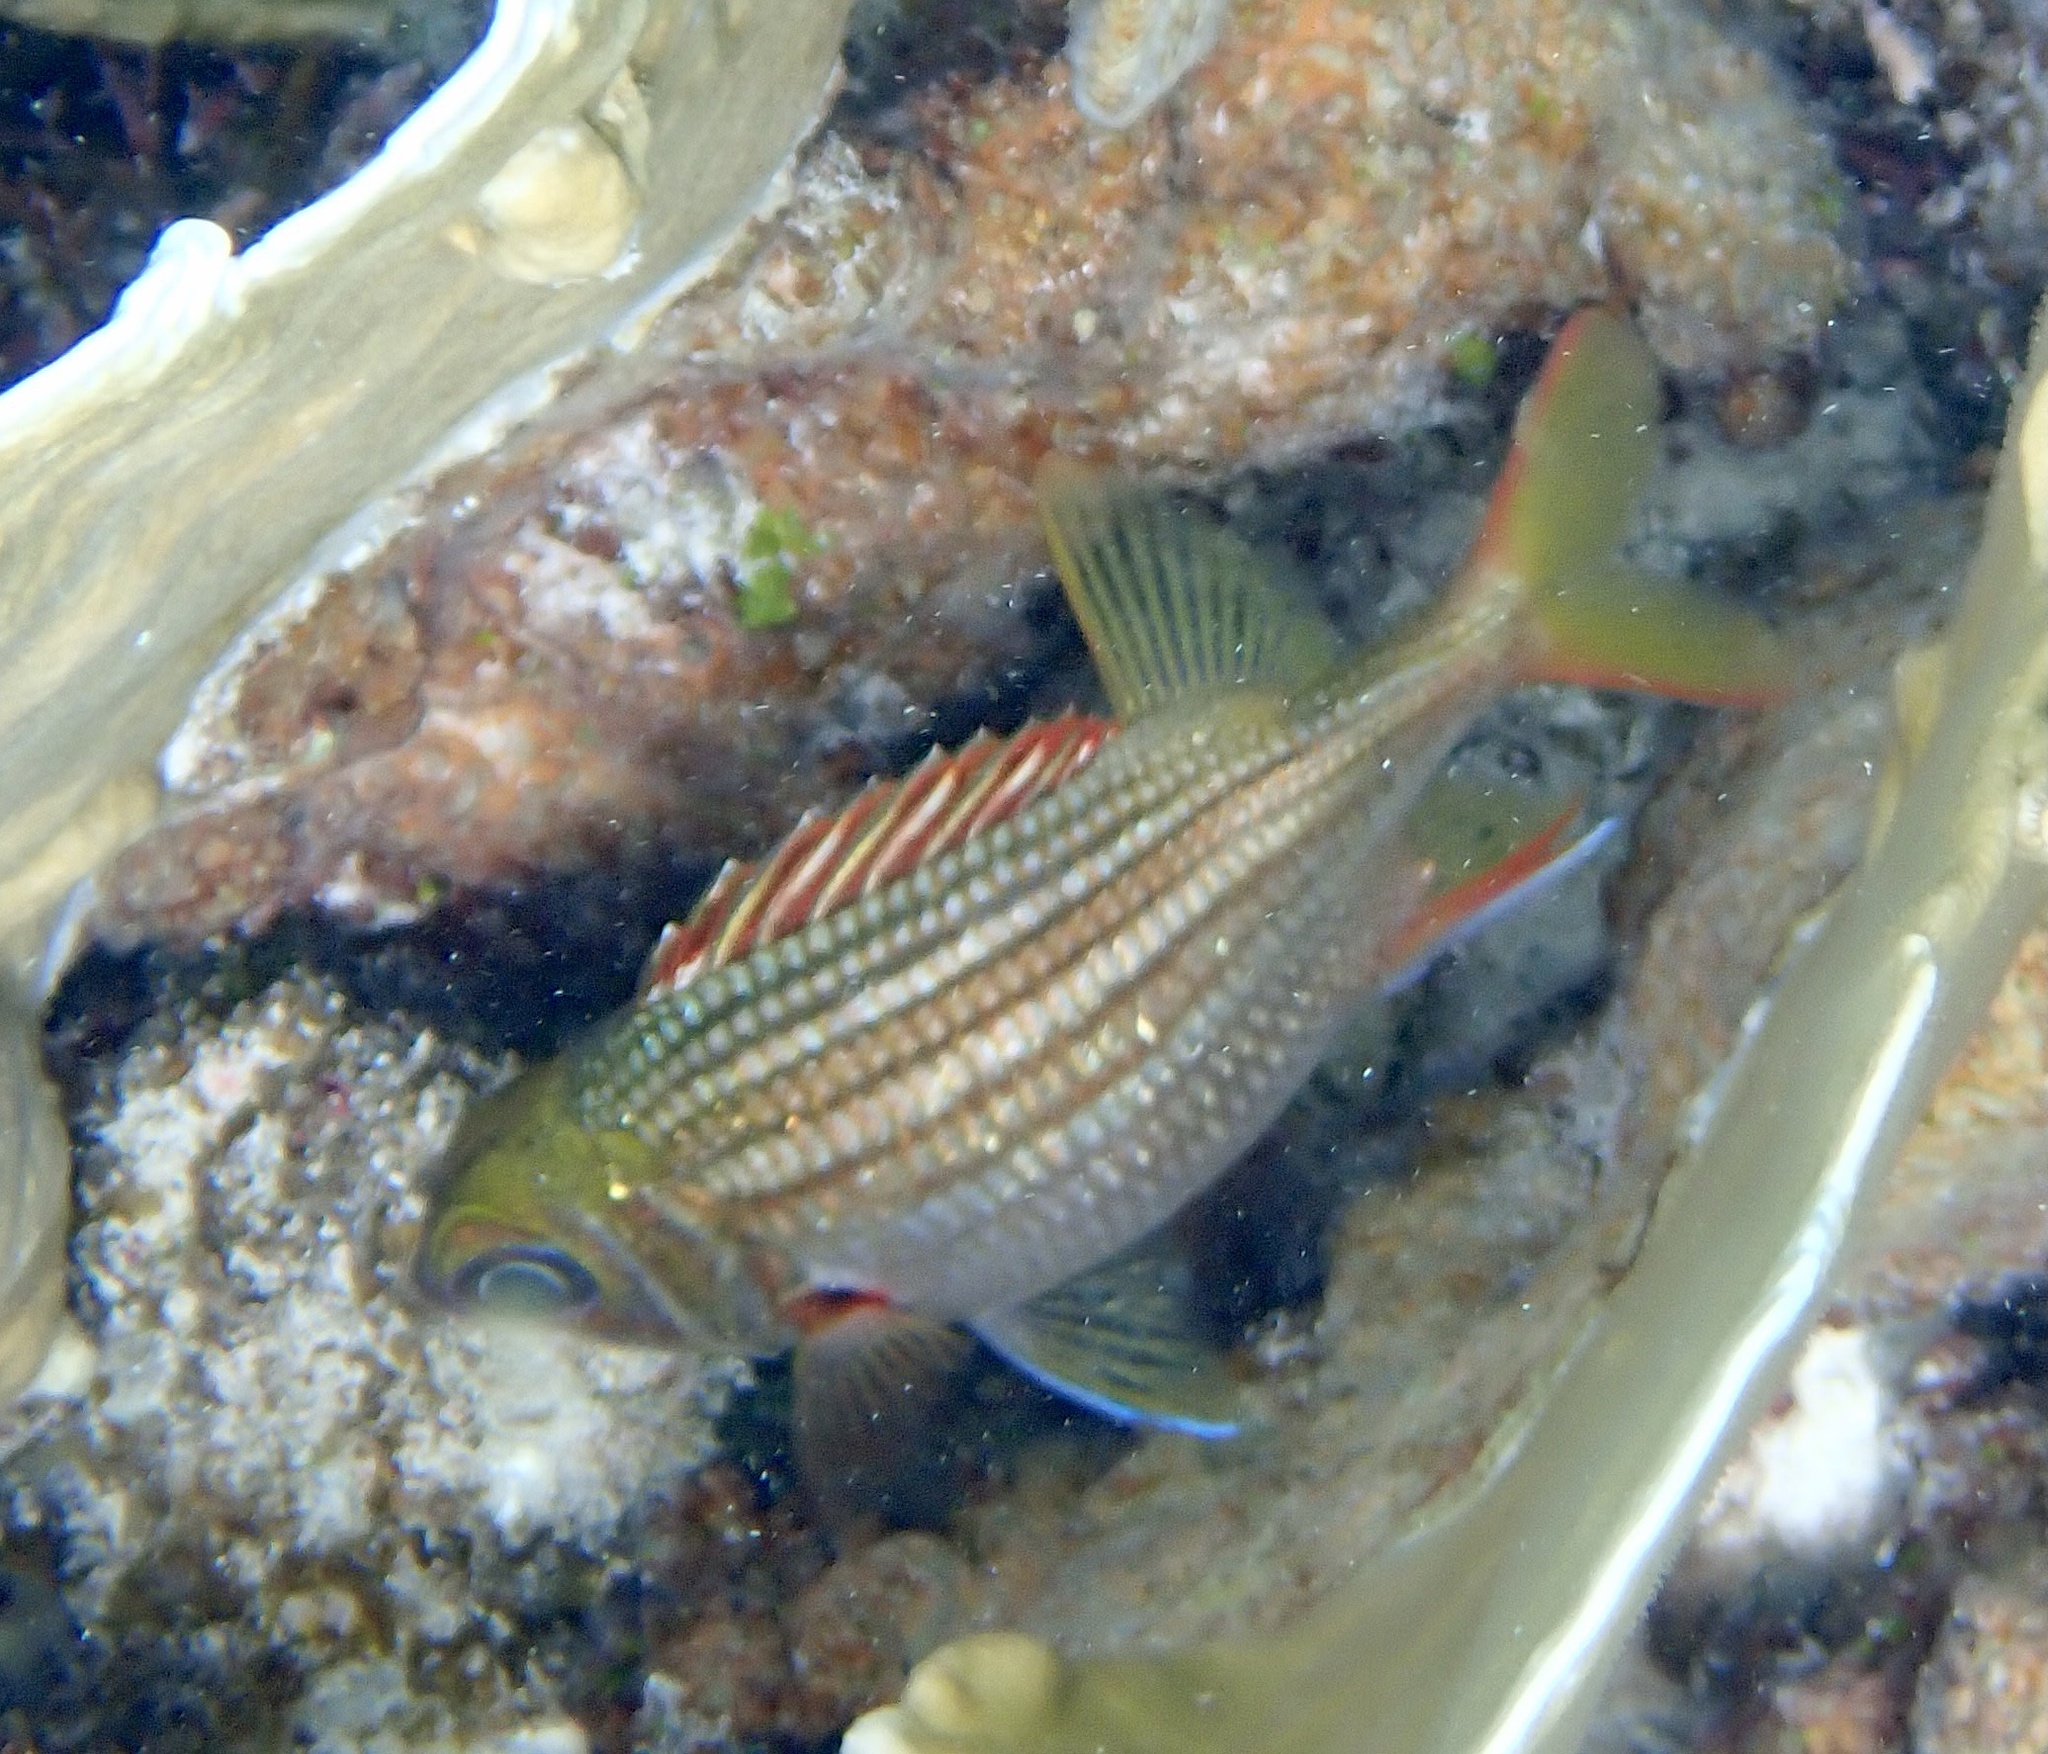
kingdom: Animalia
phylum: Chordata
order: Beryciformes
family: Holocentridae
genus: Neoniphon
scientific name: Neoniphon vexillarium
